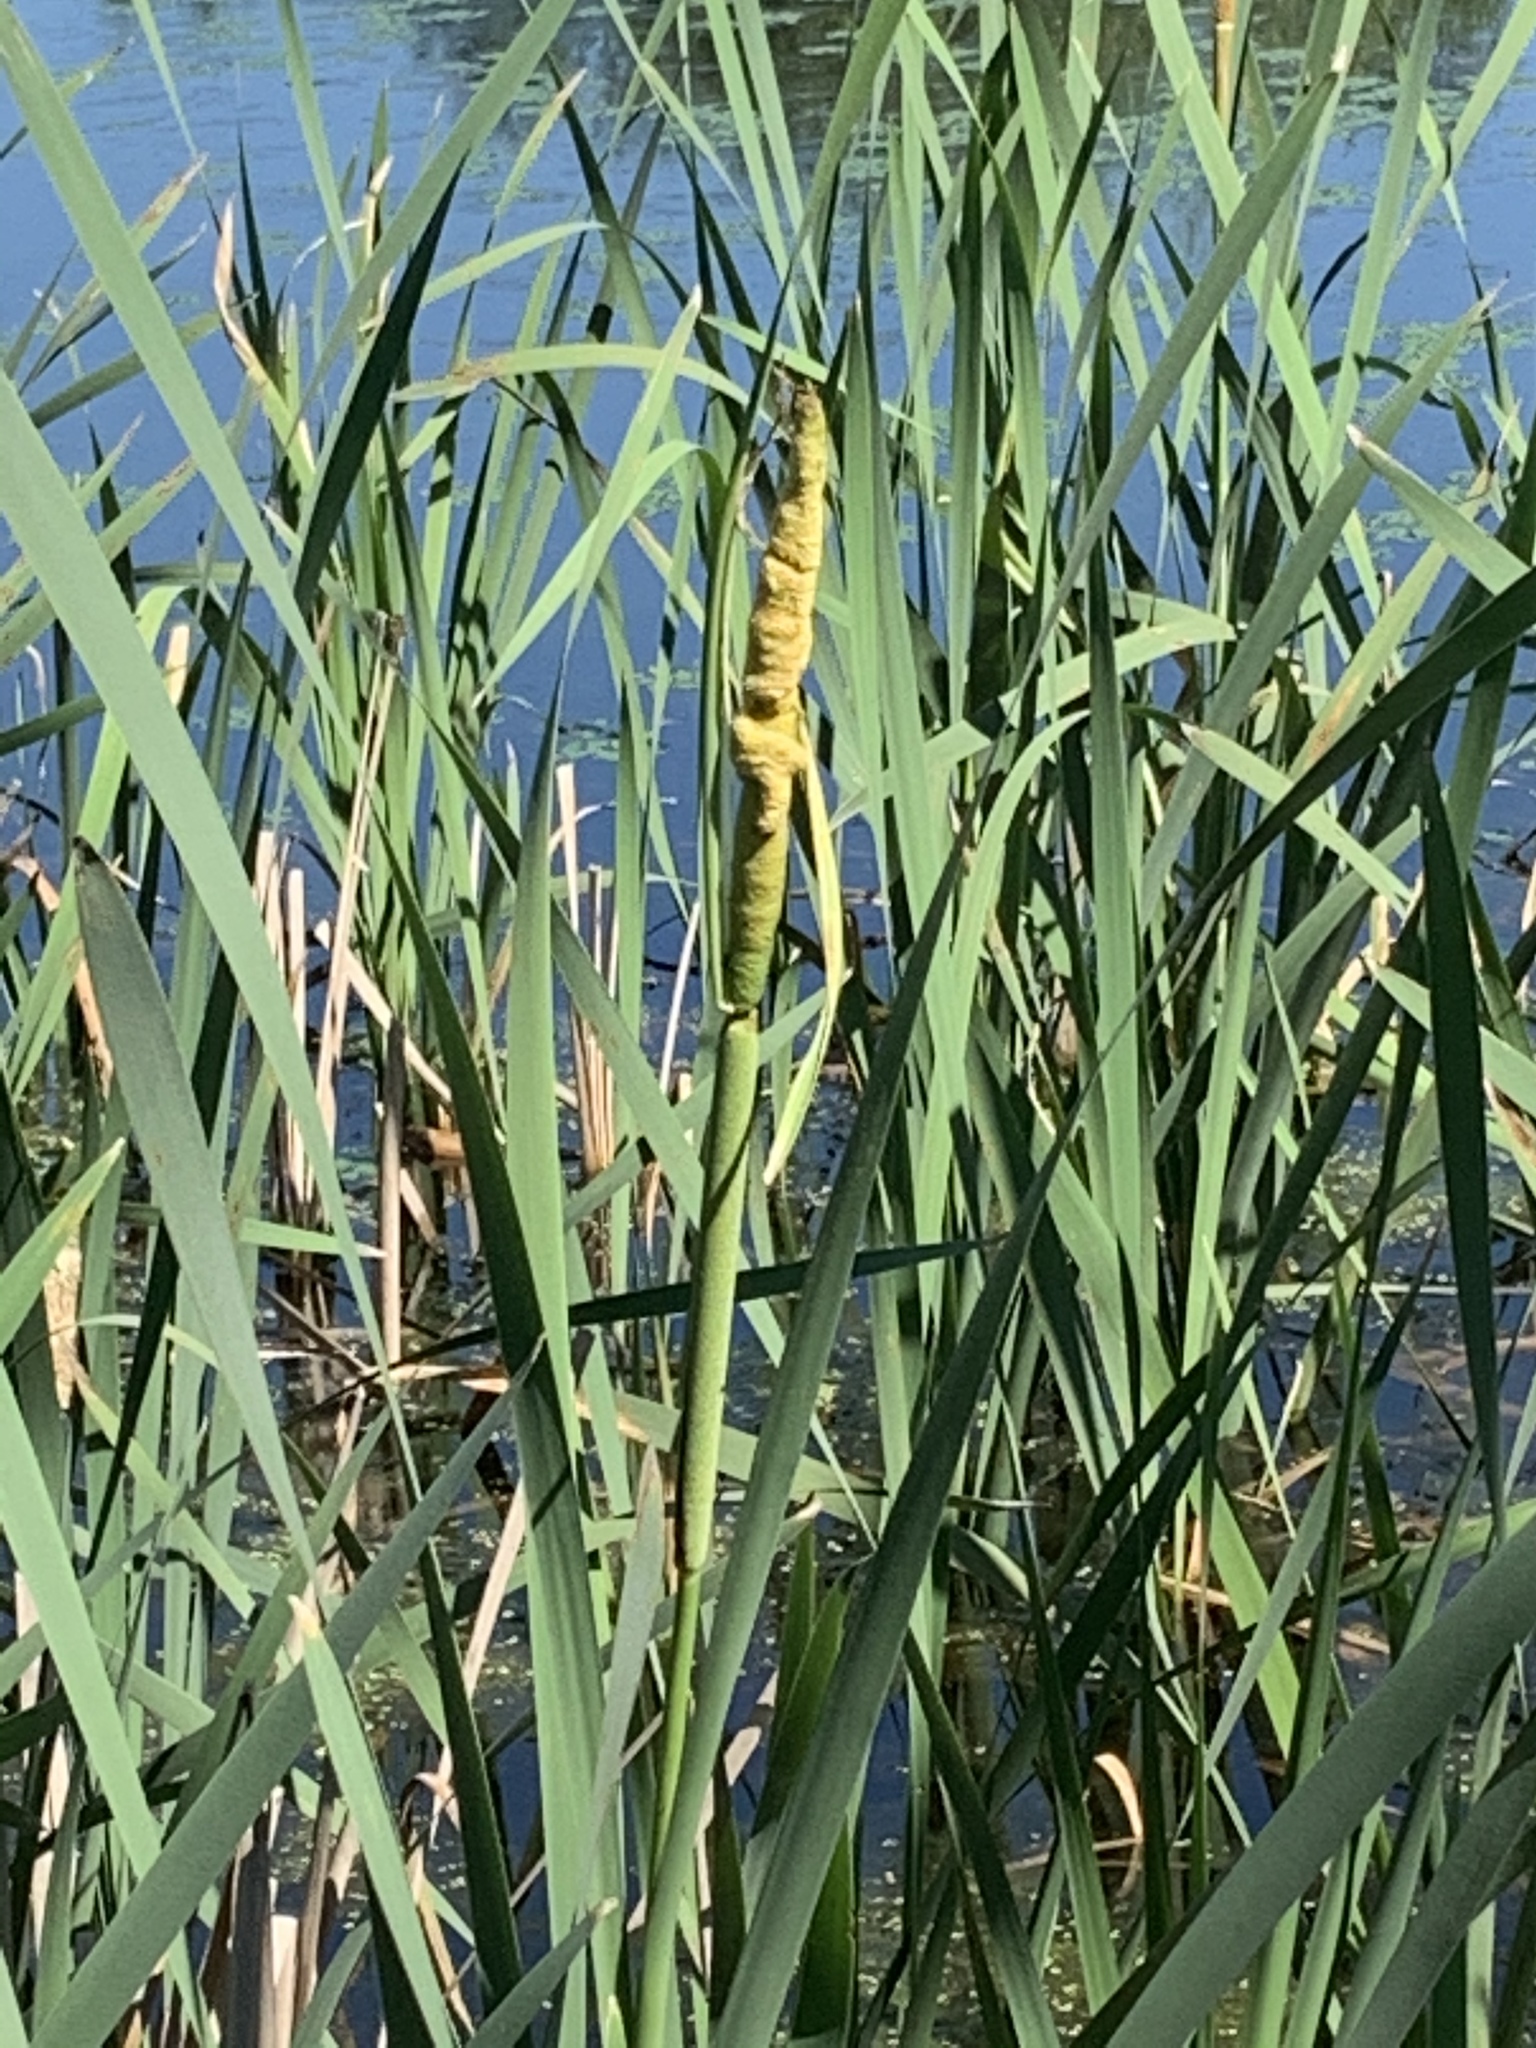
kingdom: Plantae
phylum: Tracheophyta
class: Liliopsida
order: Poales
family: Typhaceae
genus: Typha
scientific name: Typha latifolia
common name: Broadleaf cattail
